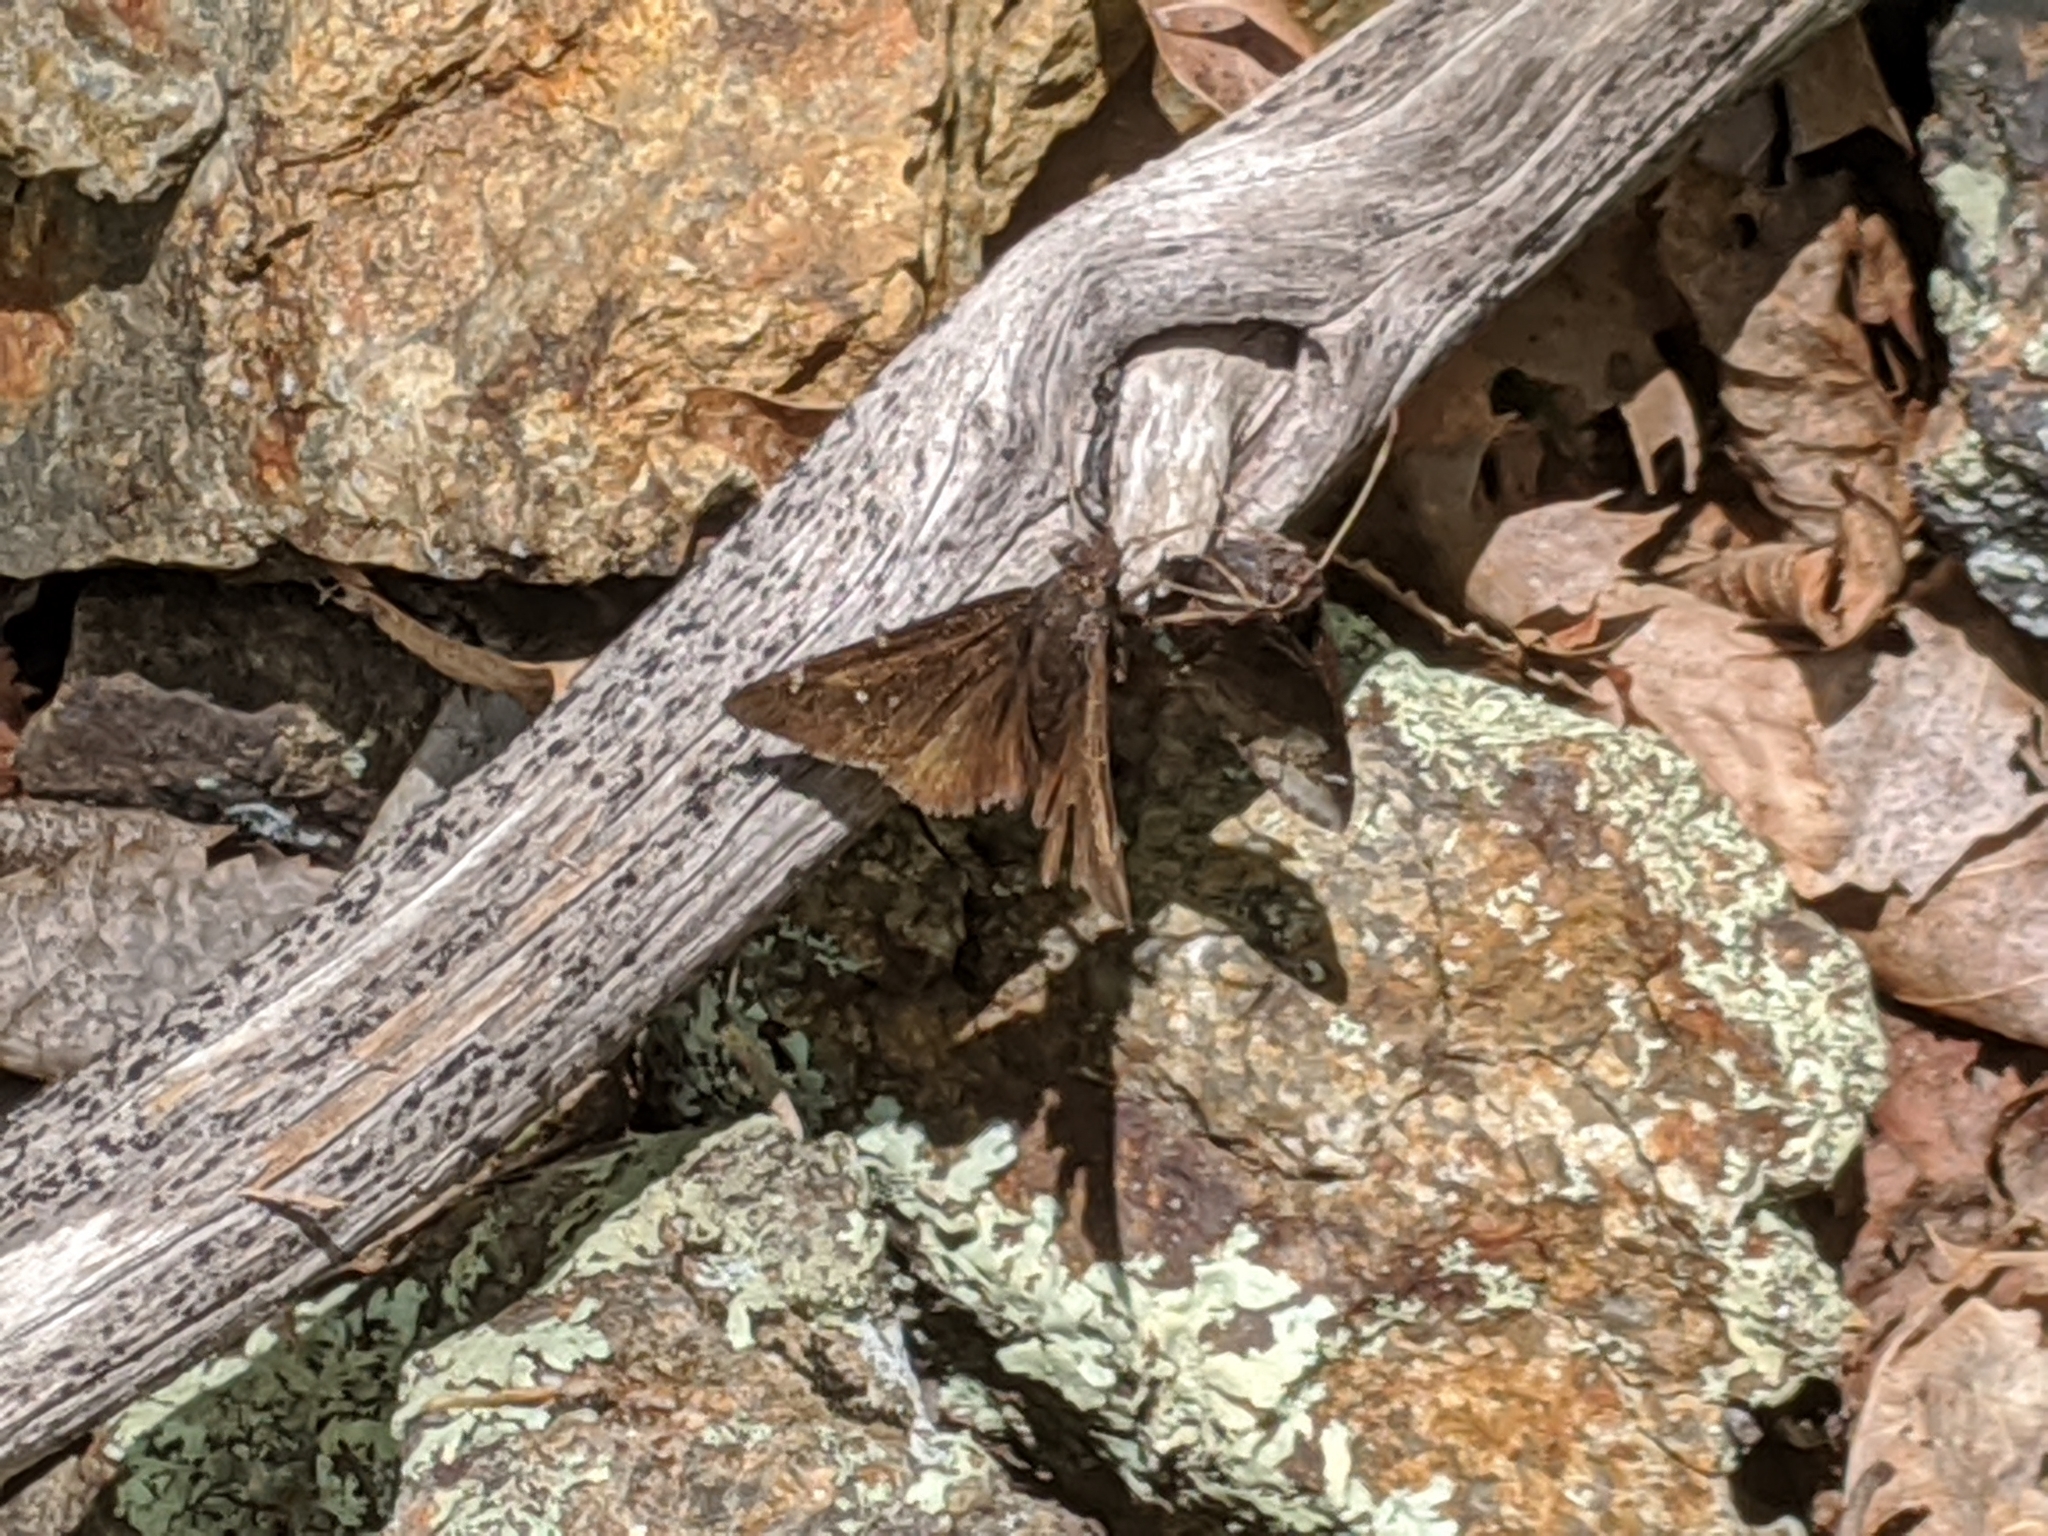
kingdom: Animalia
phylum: Arthropoda
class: Insecta
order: Lepidoptera
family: Hesperiidae
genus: Thorybes
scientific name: Thorybes pylades
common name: Northern cloudywing
